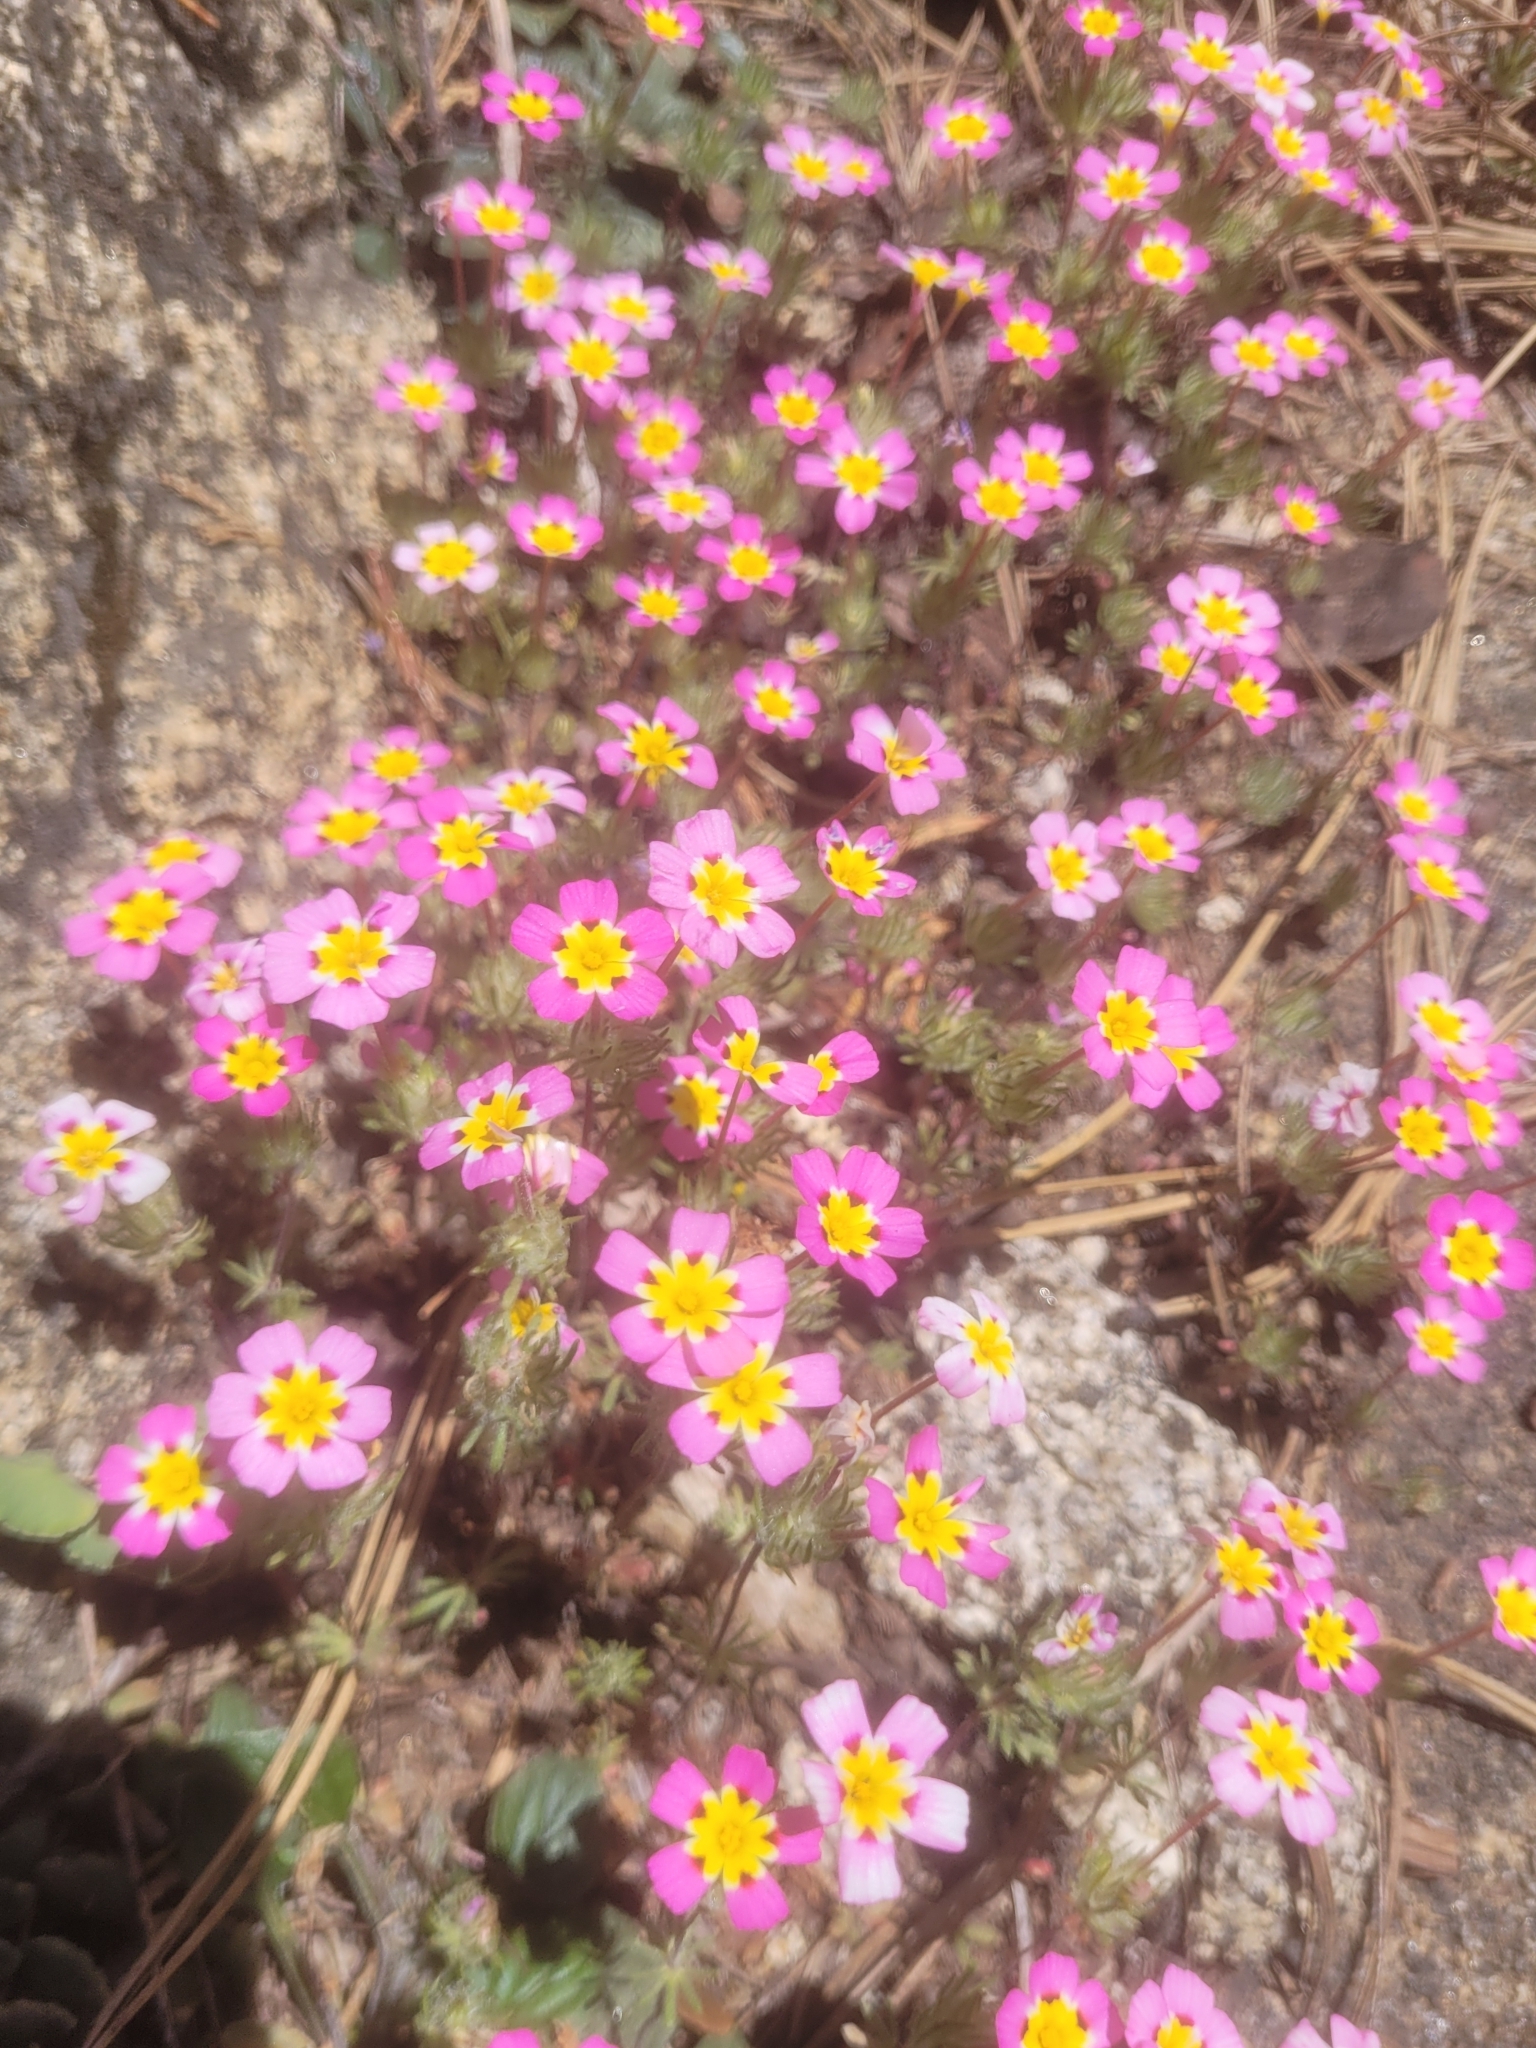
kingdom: Plantae
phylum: Tracheophyta
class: Magnoliopsida
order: Ericales
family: Polemoniaceae
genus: Leptosiphon
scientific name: Leptosiphon ciliatus
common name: Whiskerbrush
